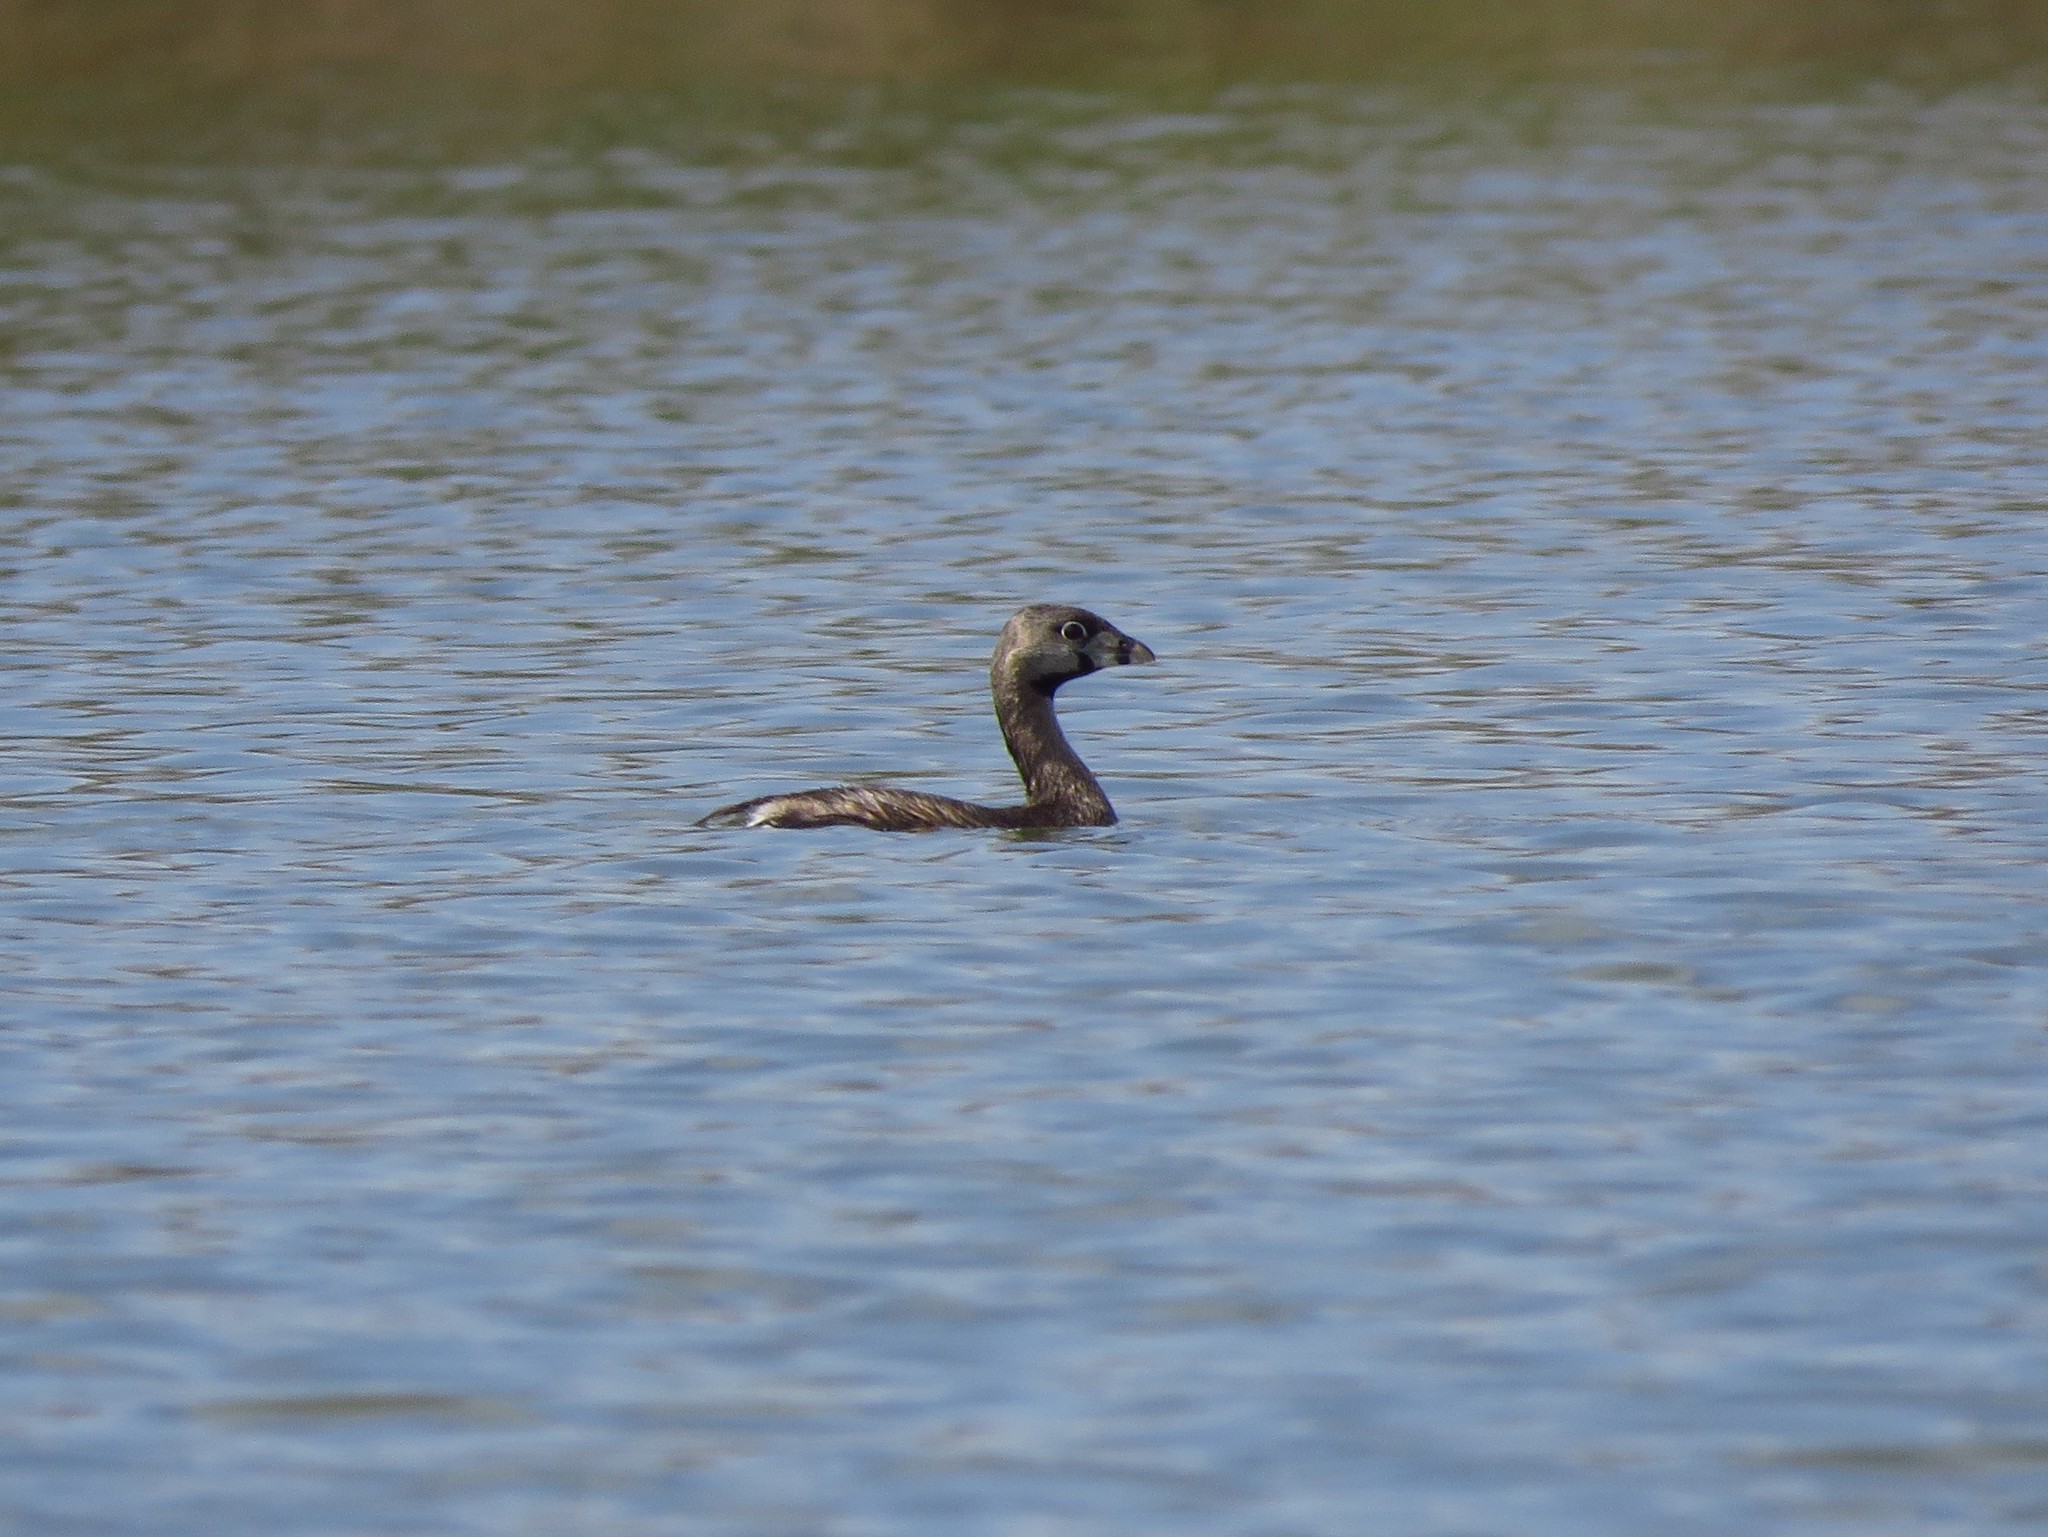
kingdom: Animalia
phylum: Chordata
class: Aves
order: Podicipediformes
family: Podicipedidae
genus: Podilymbus
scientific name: Podilymbus podiceps
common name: Pied-billed grebe
